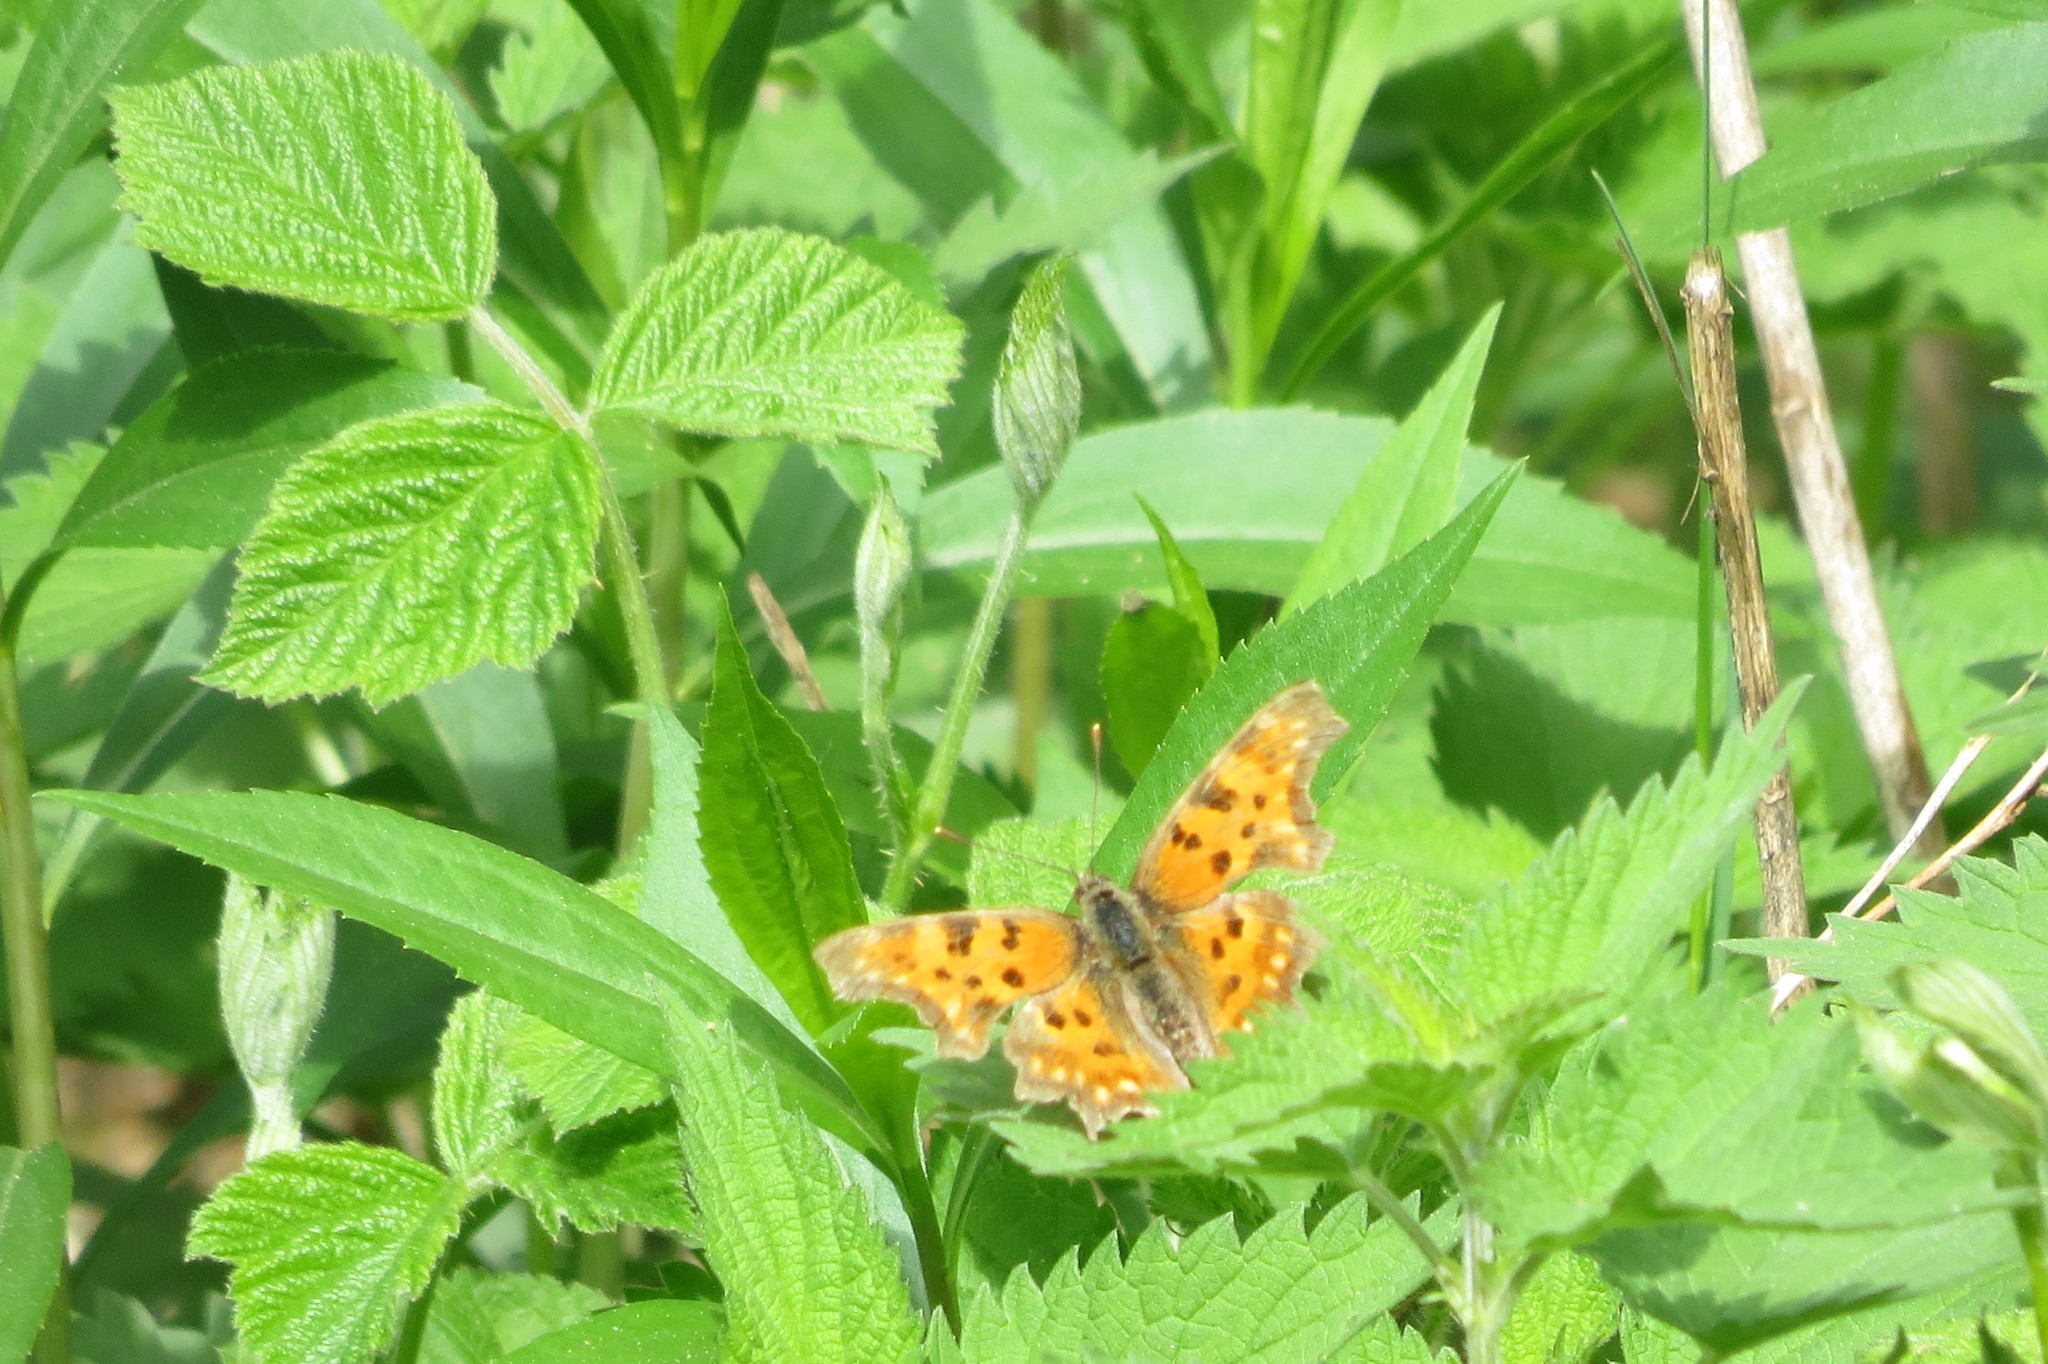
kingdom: Animalia
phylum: Arthropoda
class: Insecta
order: Lepidoptera
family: Nymphalidae
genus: Polygonia
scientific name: Polygonia c-album
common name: Comma
